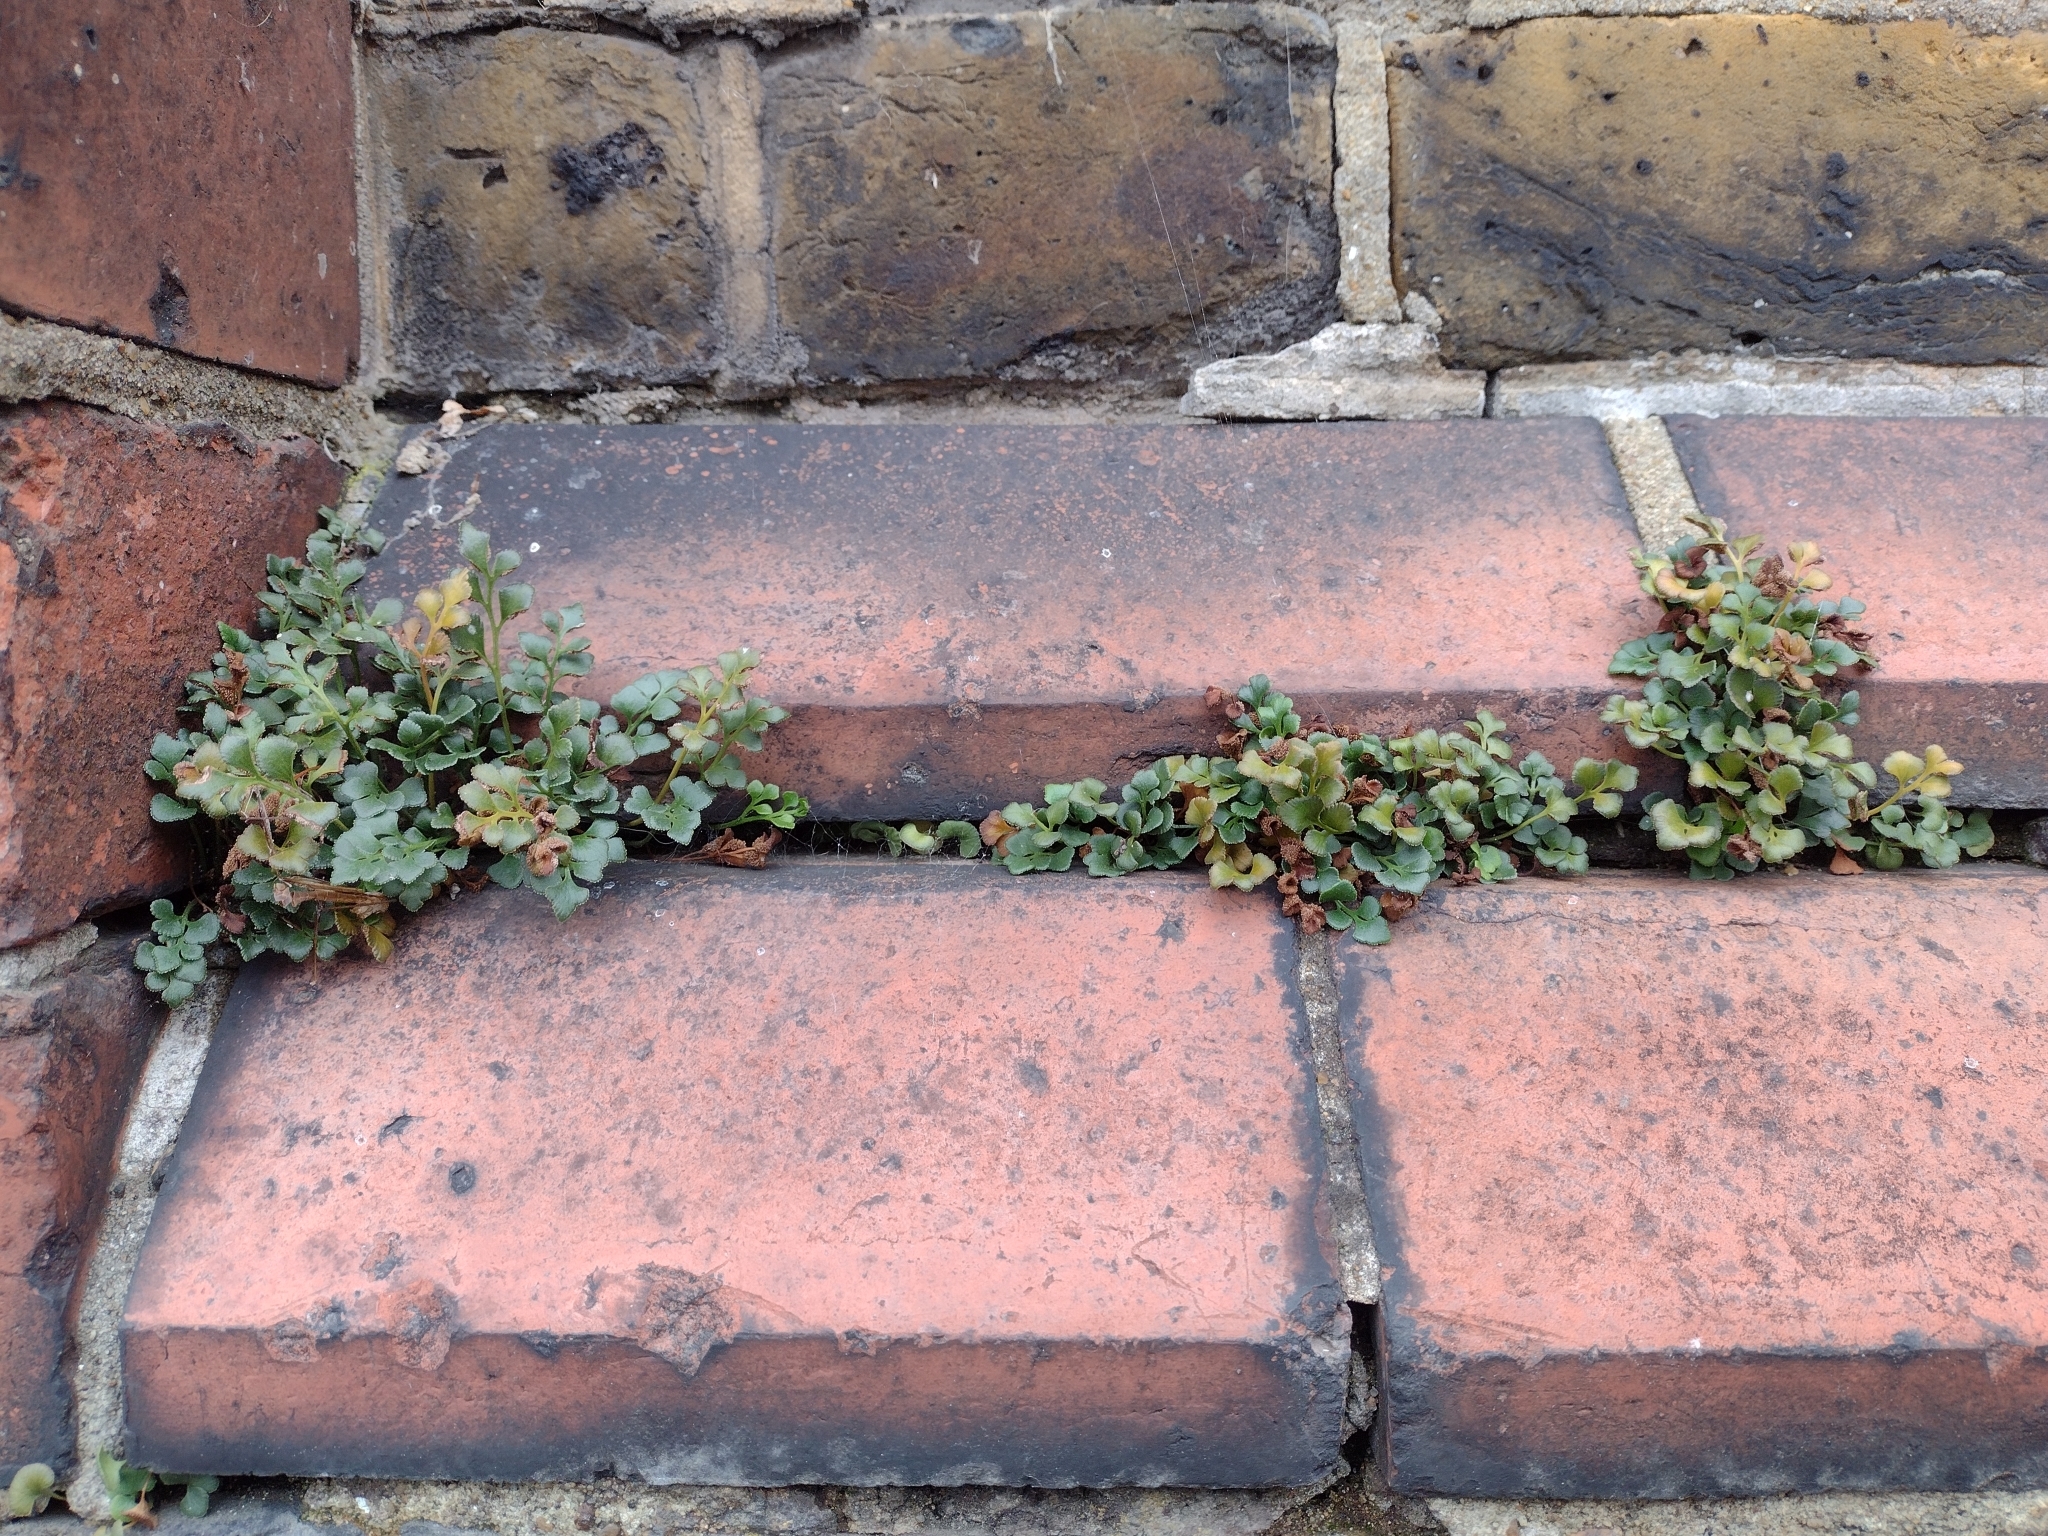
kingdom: Plantae
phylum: Tracheophyta
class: Polypodiopsida
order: Polypodiales
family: Aspleniaceae
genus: Asplenium
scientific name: Asplenium ruta-muraria
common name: Wall-rue
